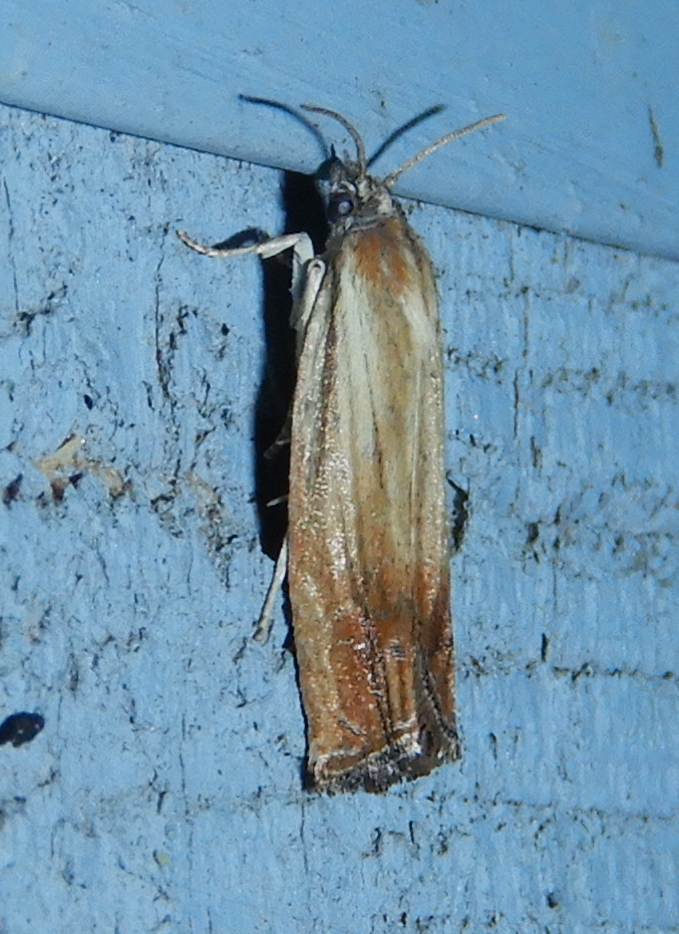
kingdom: Animalia
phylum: Arthropoda
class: Insecta
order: Lepidoptera
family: Tortricidae
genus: Eucosma
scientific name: Eucosma umbrastriana
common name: Smoky-striped eucosoma
